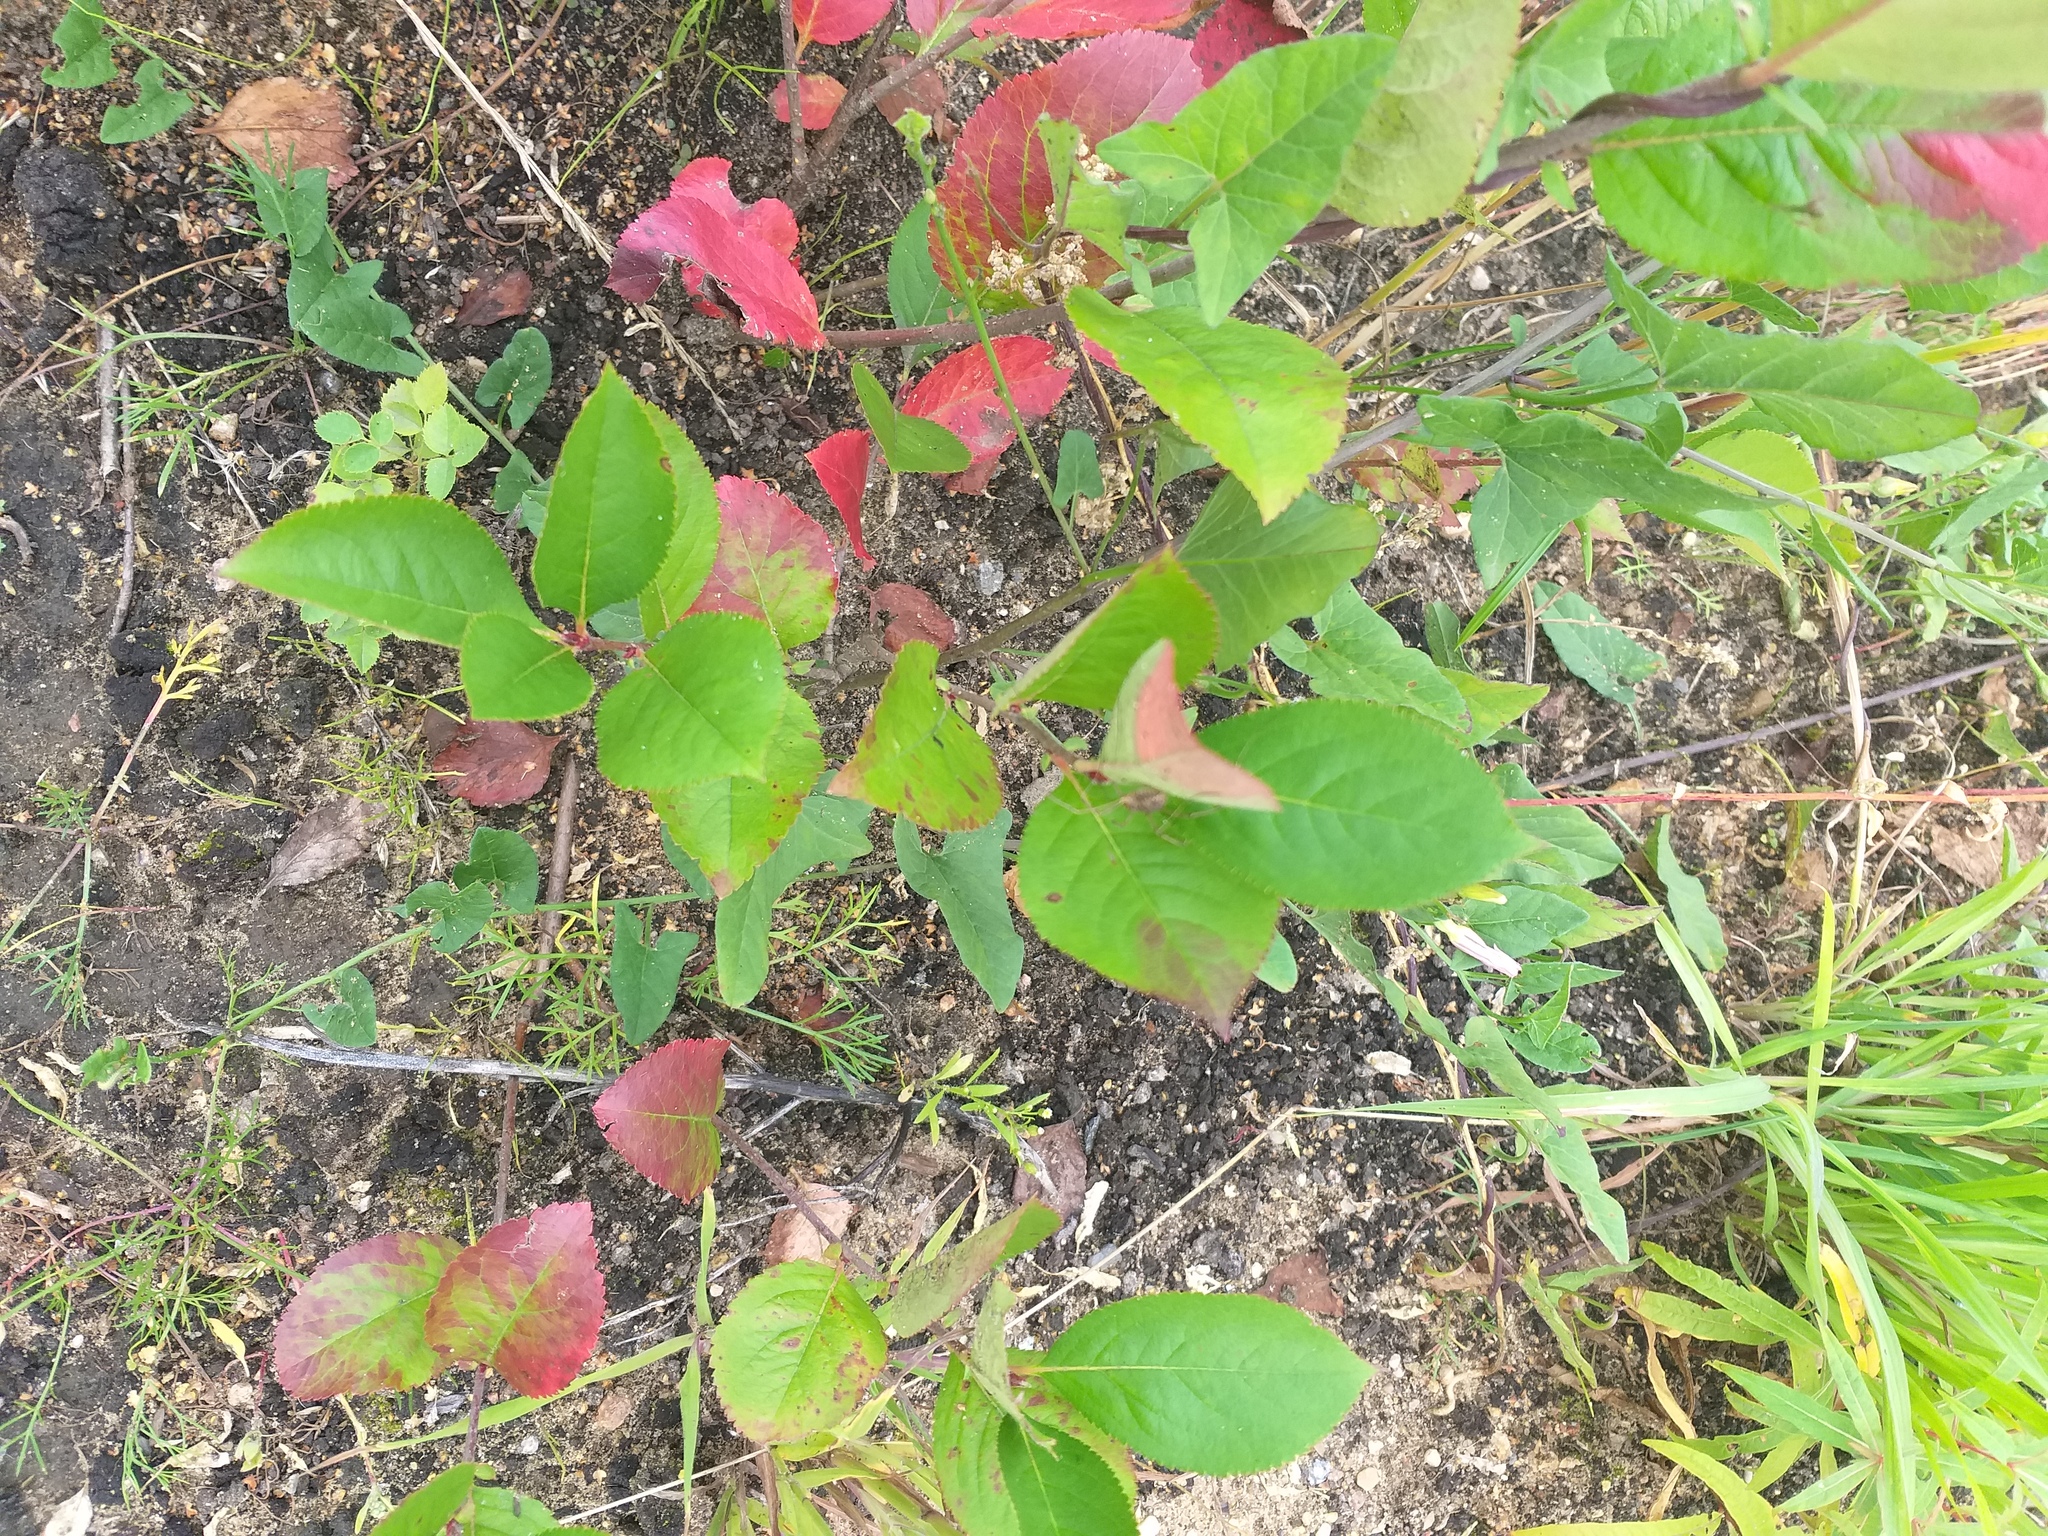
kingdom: Plantae
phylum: Tracheophyta
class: Magnoliopsida
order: Rosales
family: Rosaceae
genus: Sorbaronia
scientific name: Sorbaronia arsenii
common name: Arsène's mountain-ash
